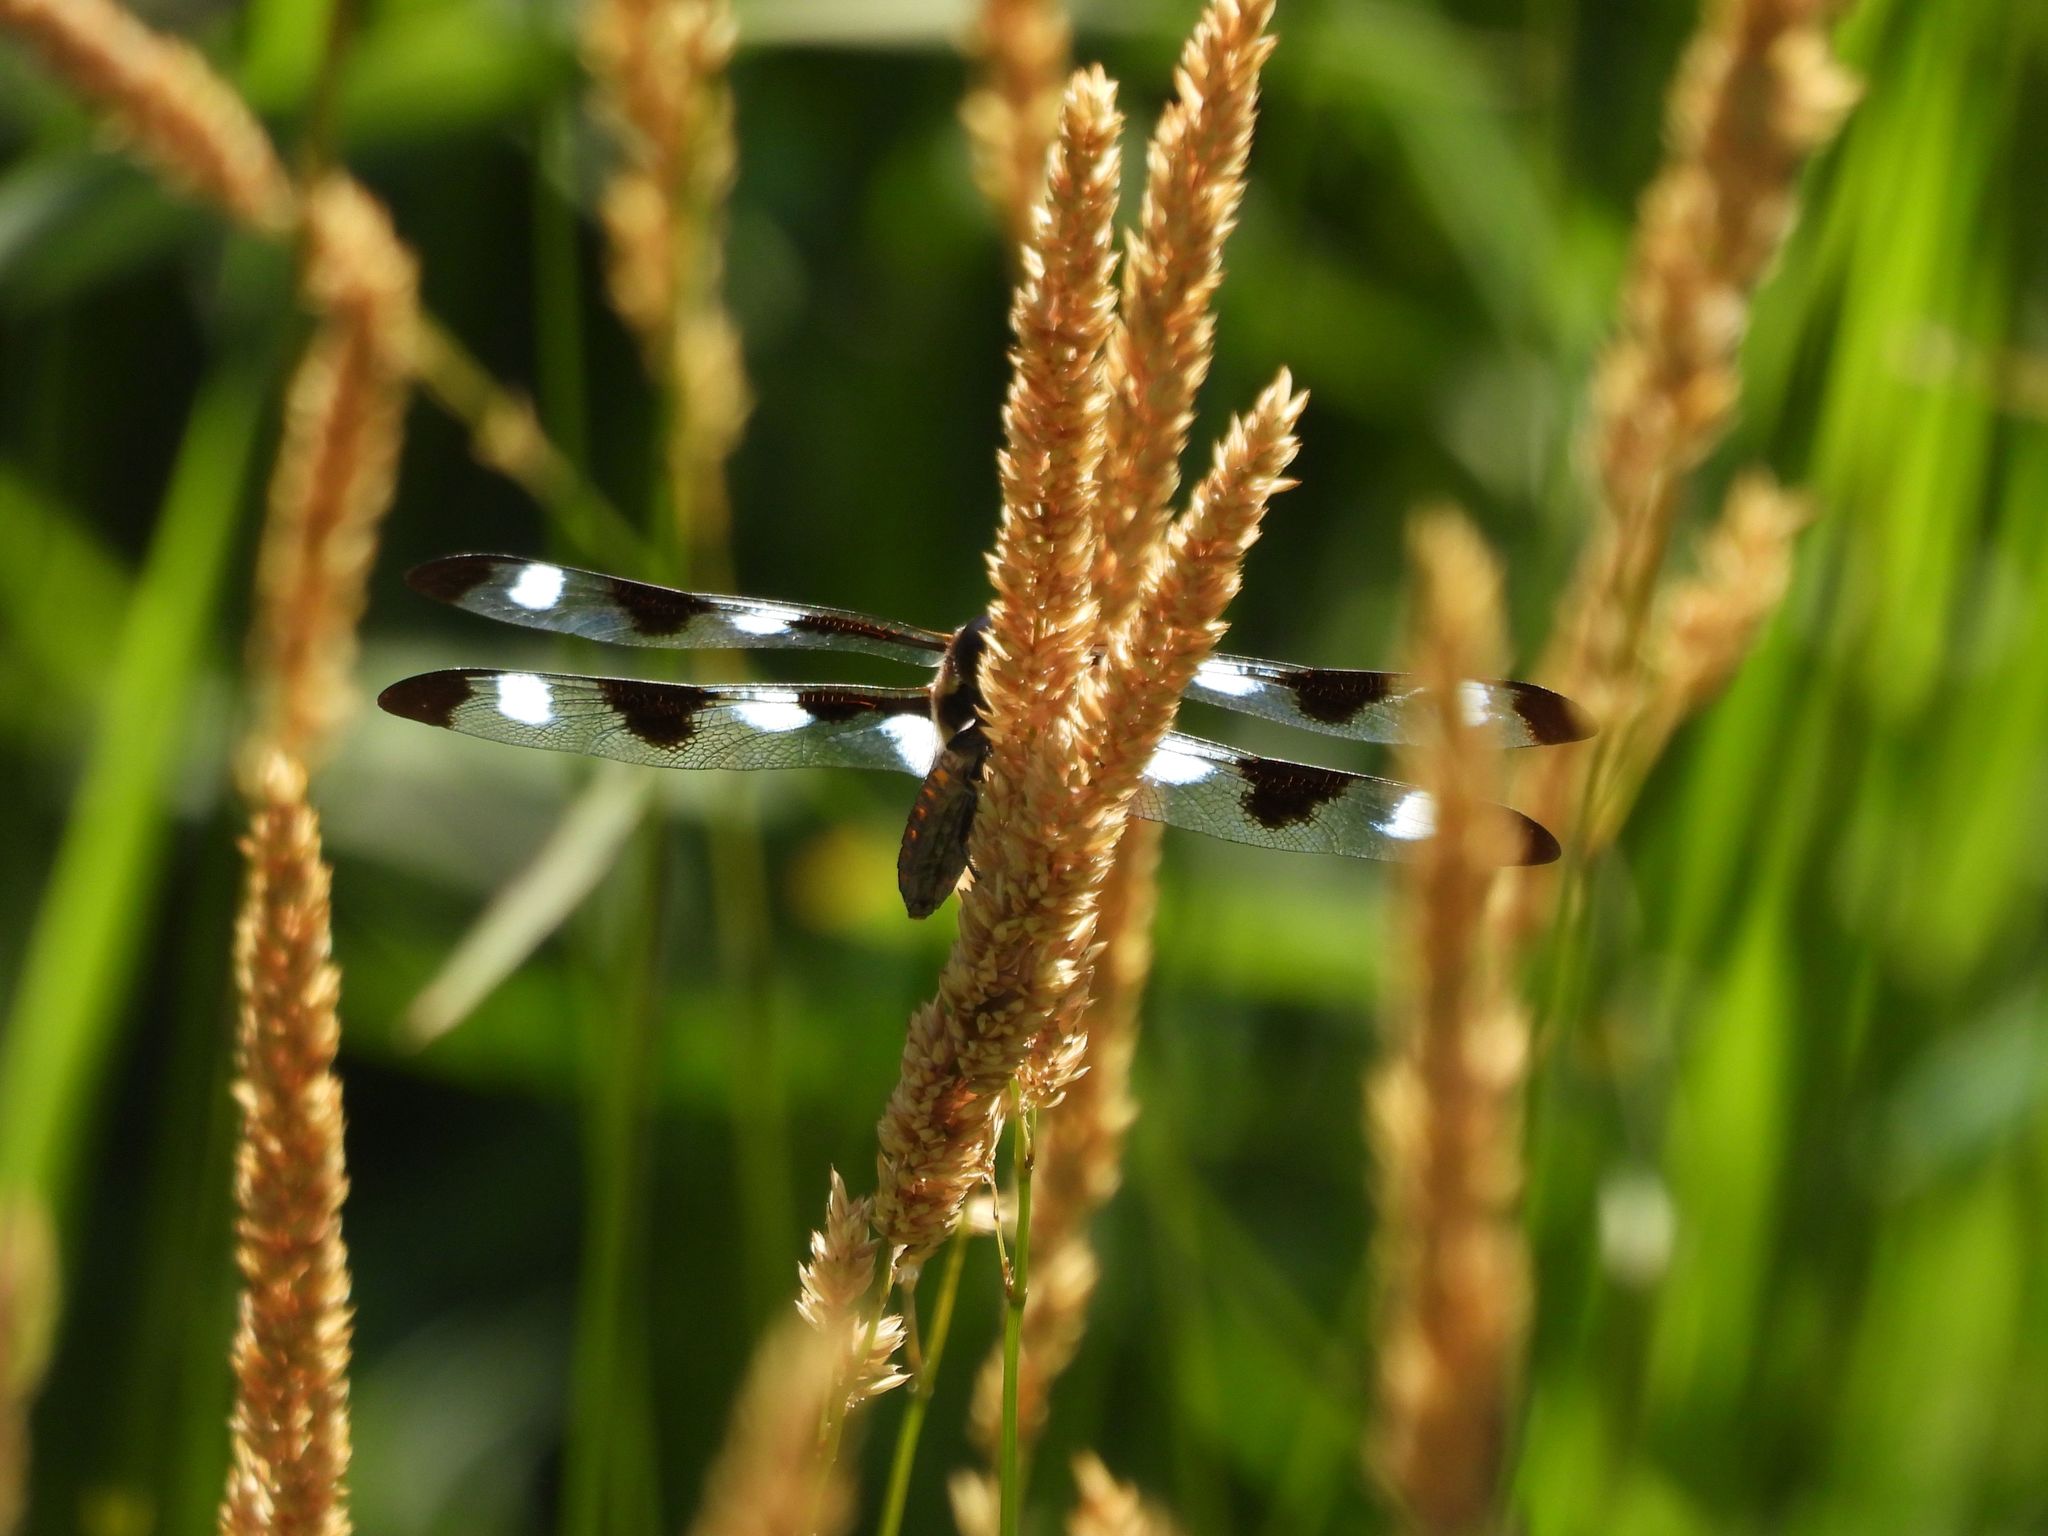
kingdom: Animalia
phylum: Arthropoda
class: Insecta
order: Odonata
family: Libellulidae
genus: Libellula
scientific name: Libellula pulchella
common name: Twelve-spotted skimmer
